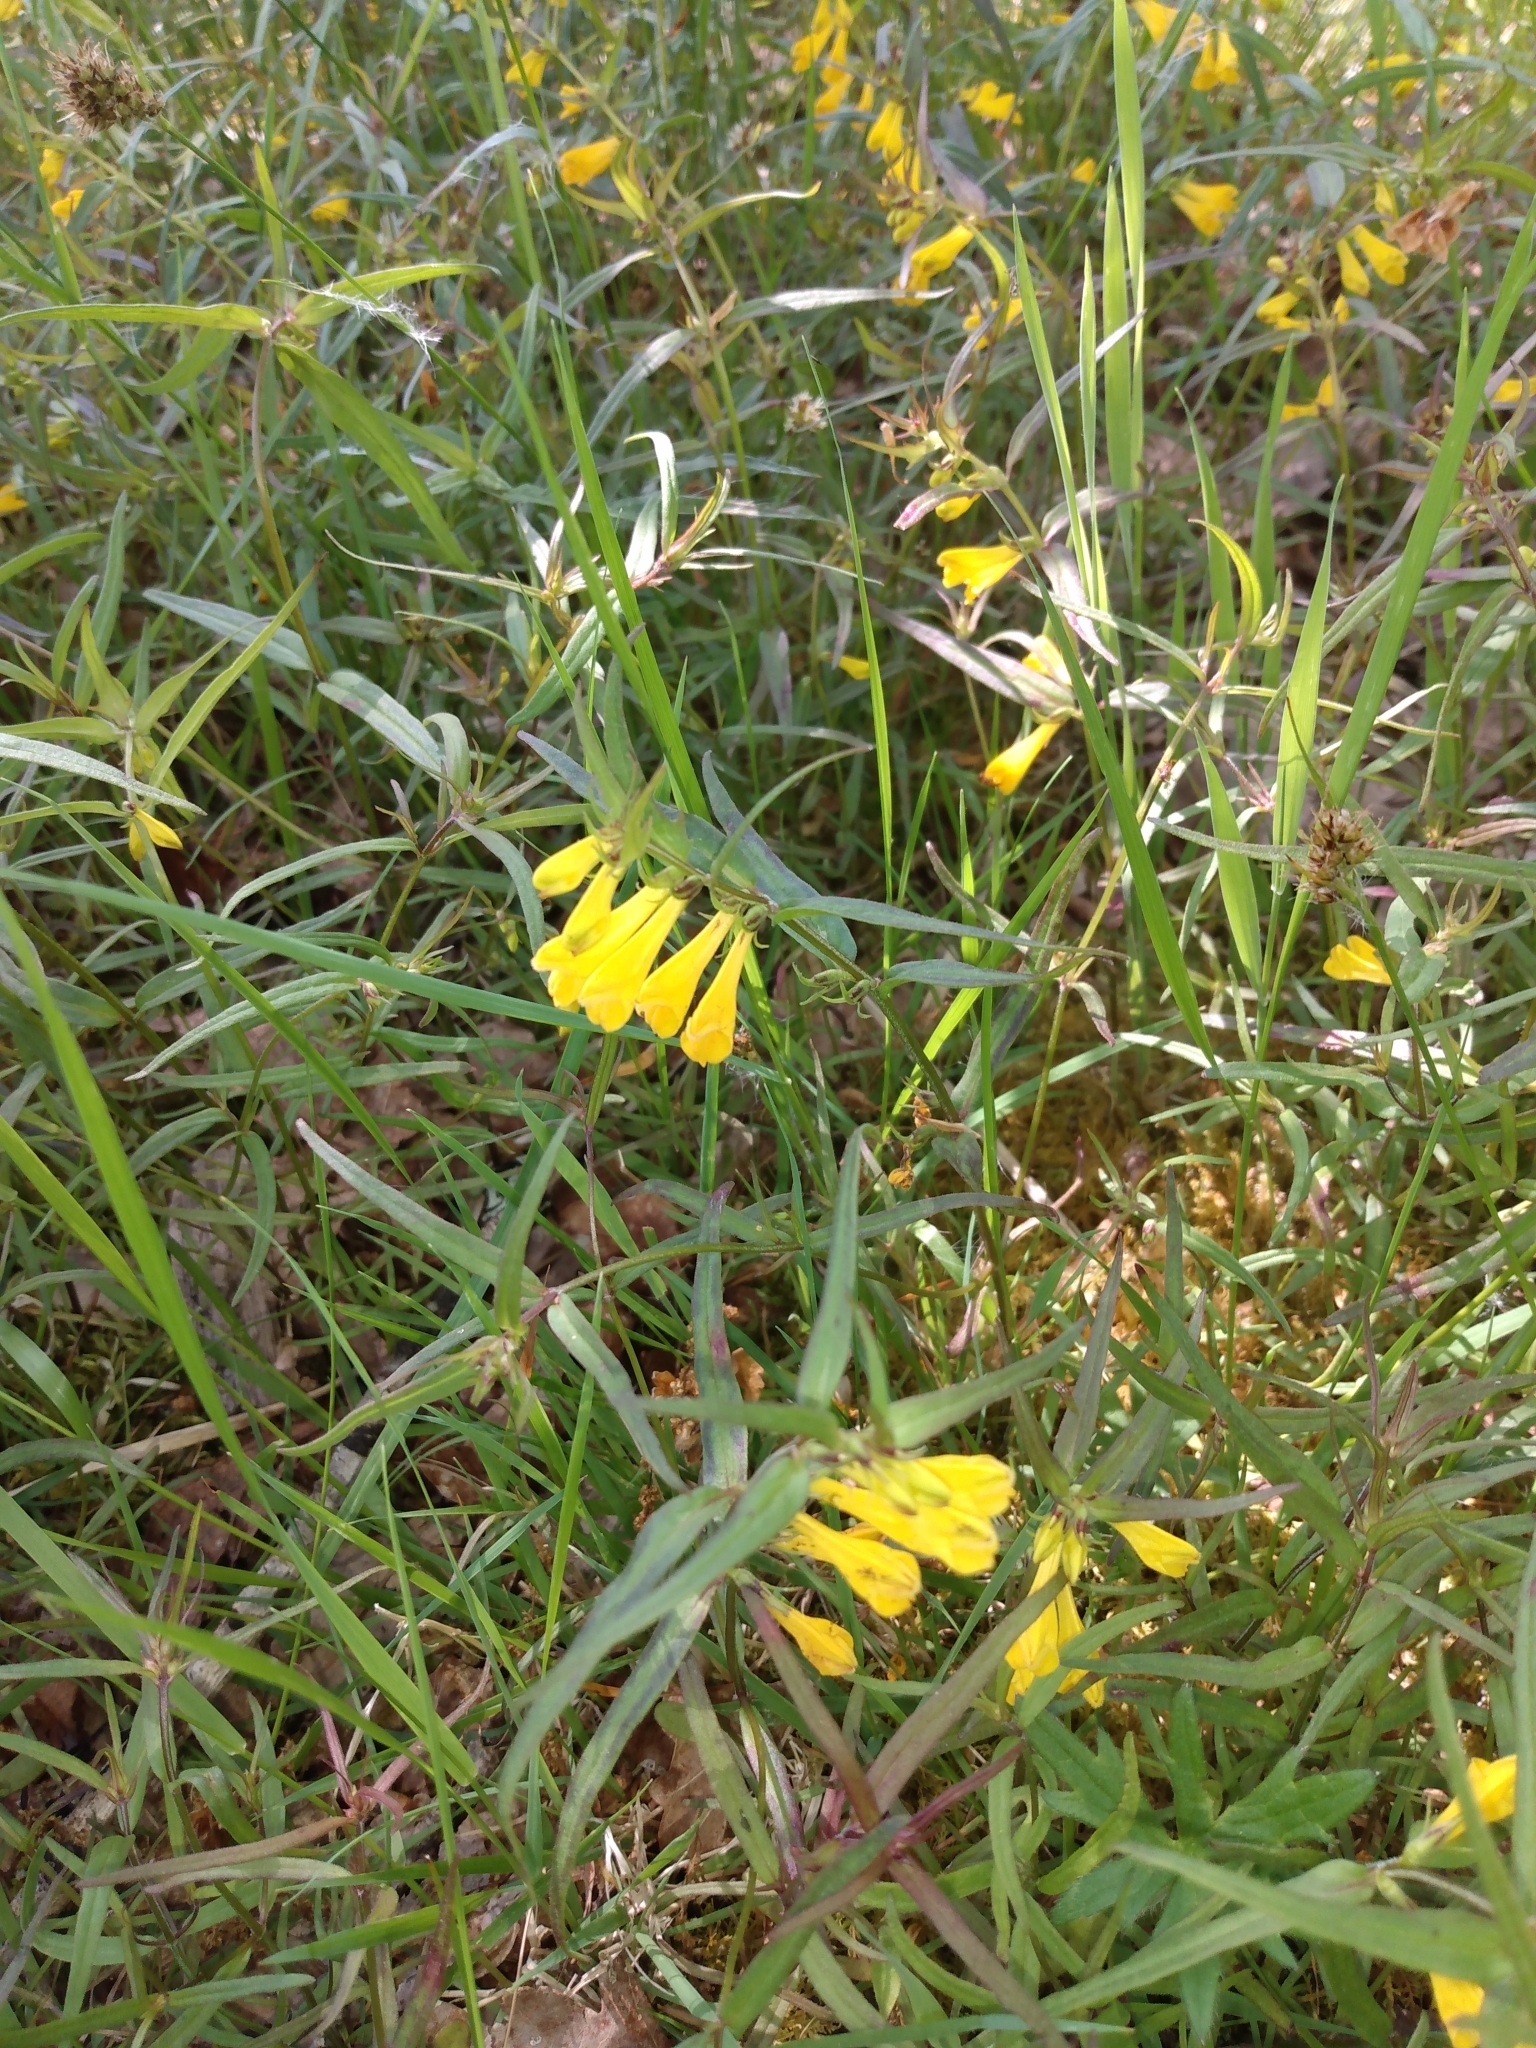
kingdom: Plantae
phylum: Tracheophyta
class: Magnoliopsida
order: Lamiales
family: Orobanchaceae
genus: Melampyrum
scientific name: Melampyrum pratense
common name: Common cow-wheat
